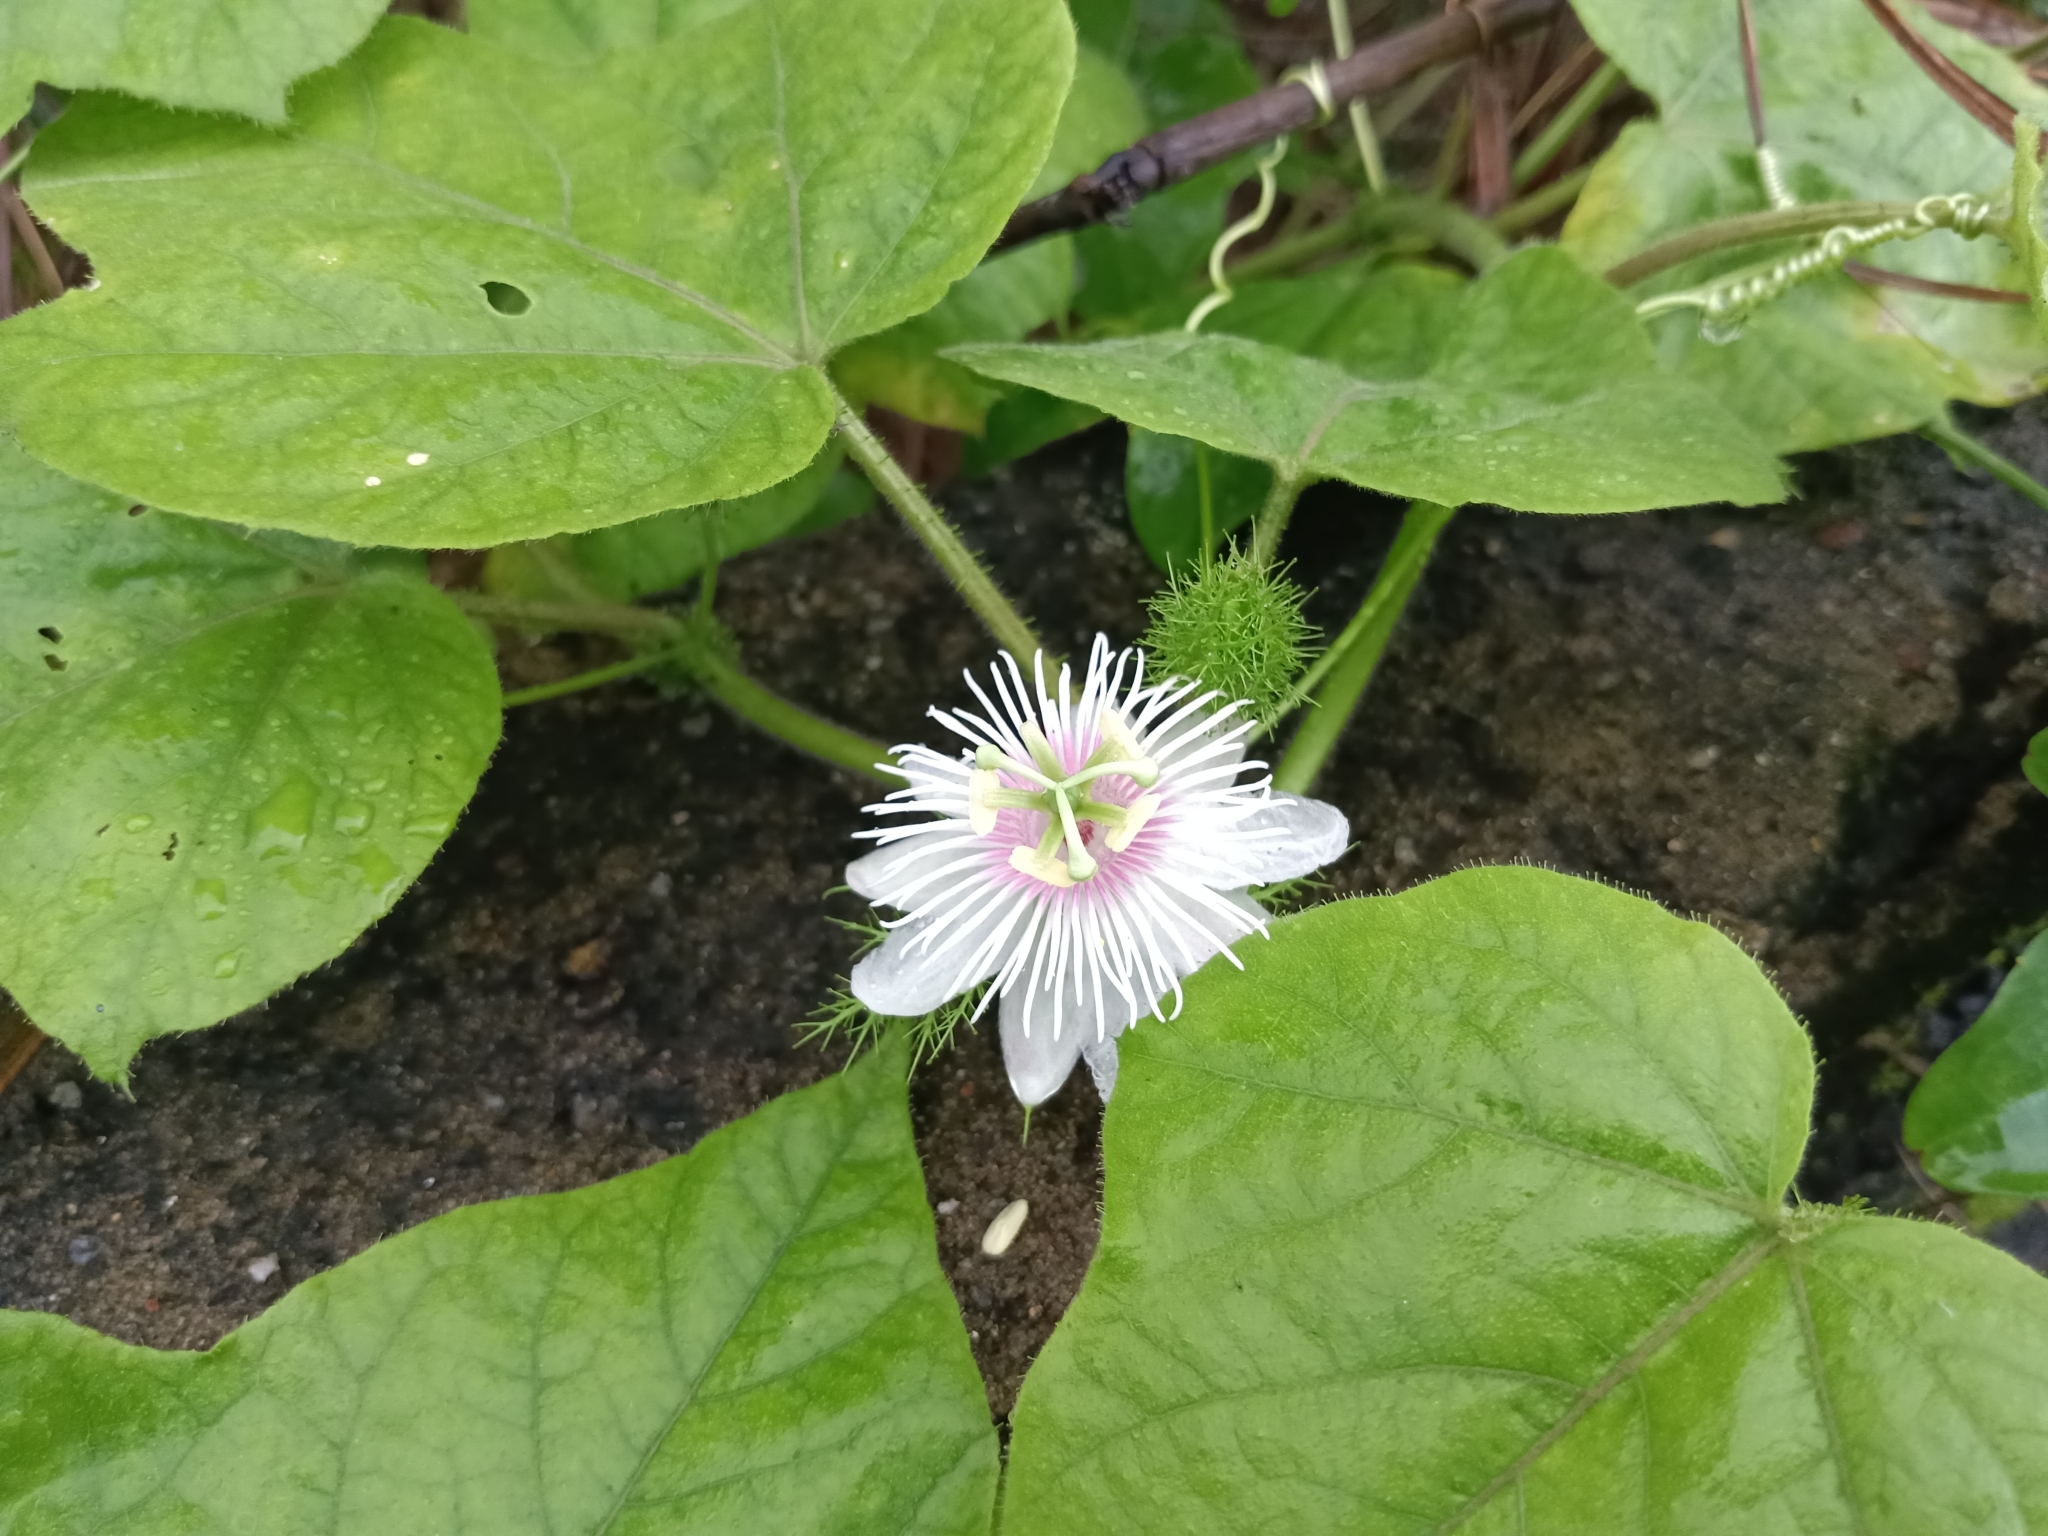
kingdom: Plantae
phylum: Tracheophyta
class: Magnoliopsida
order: Malpighiales
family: Passifloraceae
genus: Passiflora
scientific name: Passiflora vesicaria
